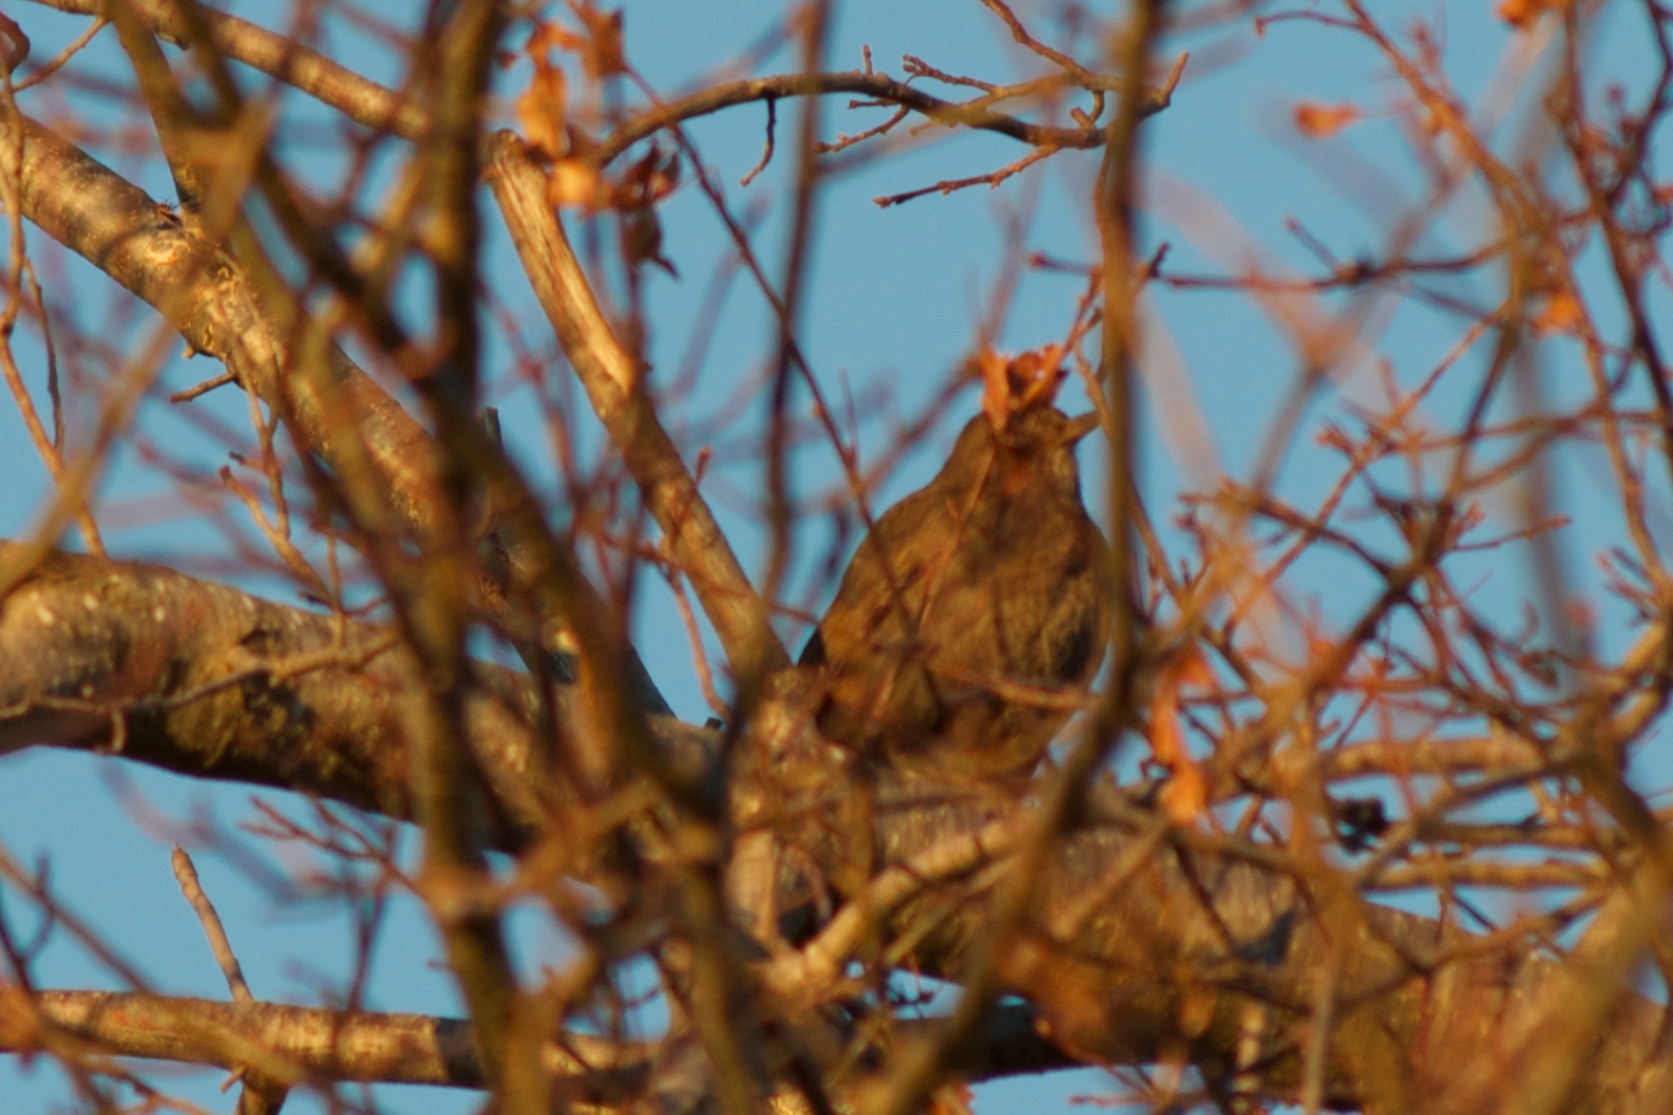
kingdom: Animalia
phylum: Chordata
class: Aves
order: Passeriformes
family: Turdidae
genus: Turdus
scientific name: Turdus merula
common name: Common blackbird
